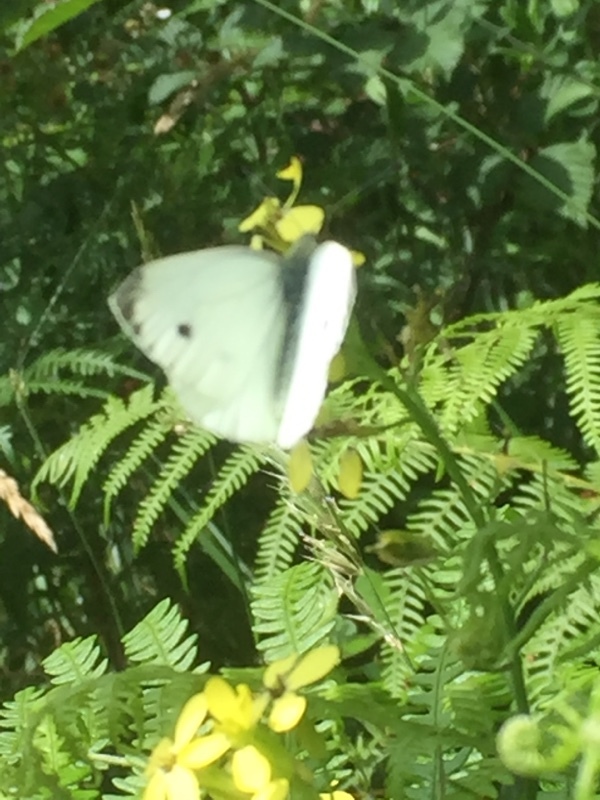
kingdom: Animalia
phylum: Arthropoda
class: Insecta
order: Lepidoptera
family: Pieridae
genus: Pieris
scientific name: Pieris napi
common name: Green-veined white
